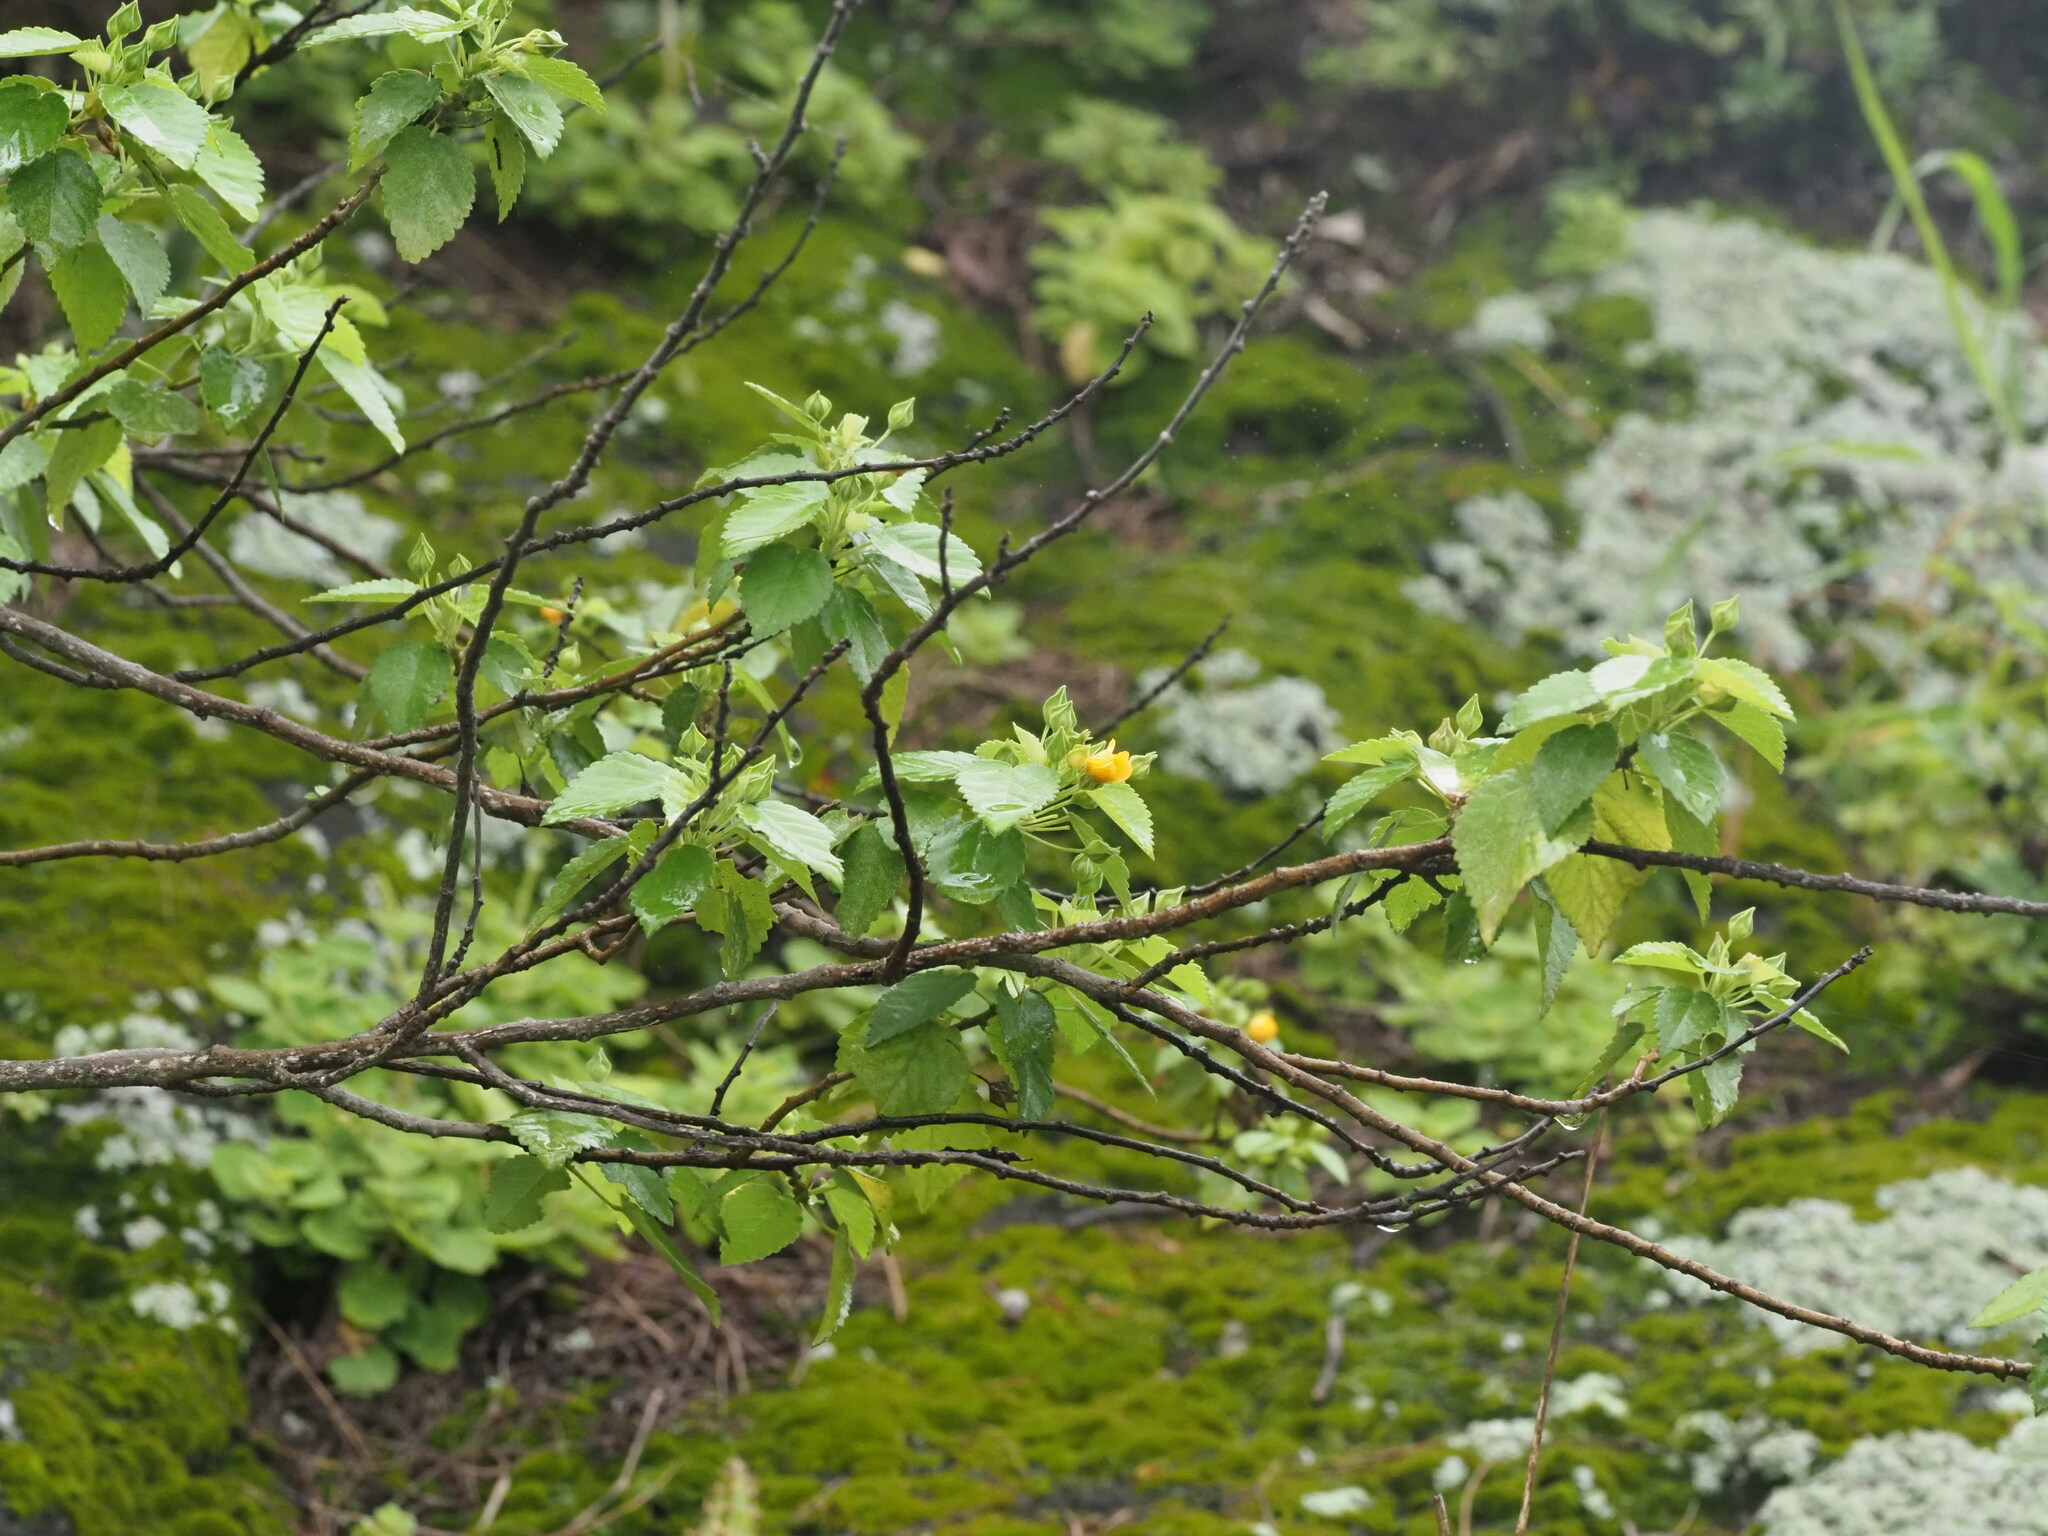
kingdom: Plantae
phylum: Tracheophyta
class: Magnoliopsida
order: Malvales
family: Malvaceae
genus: Sida
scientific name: Sida fallax
